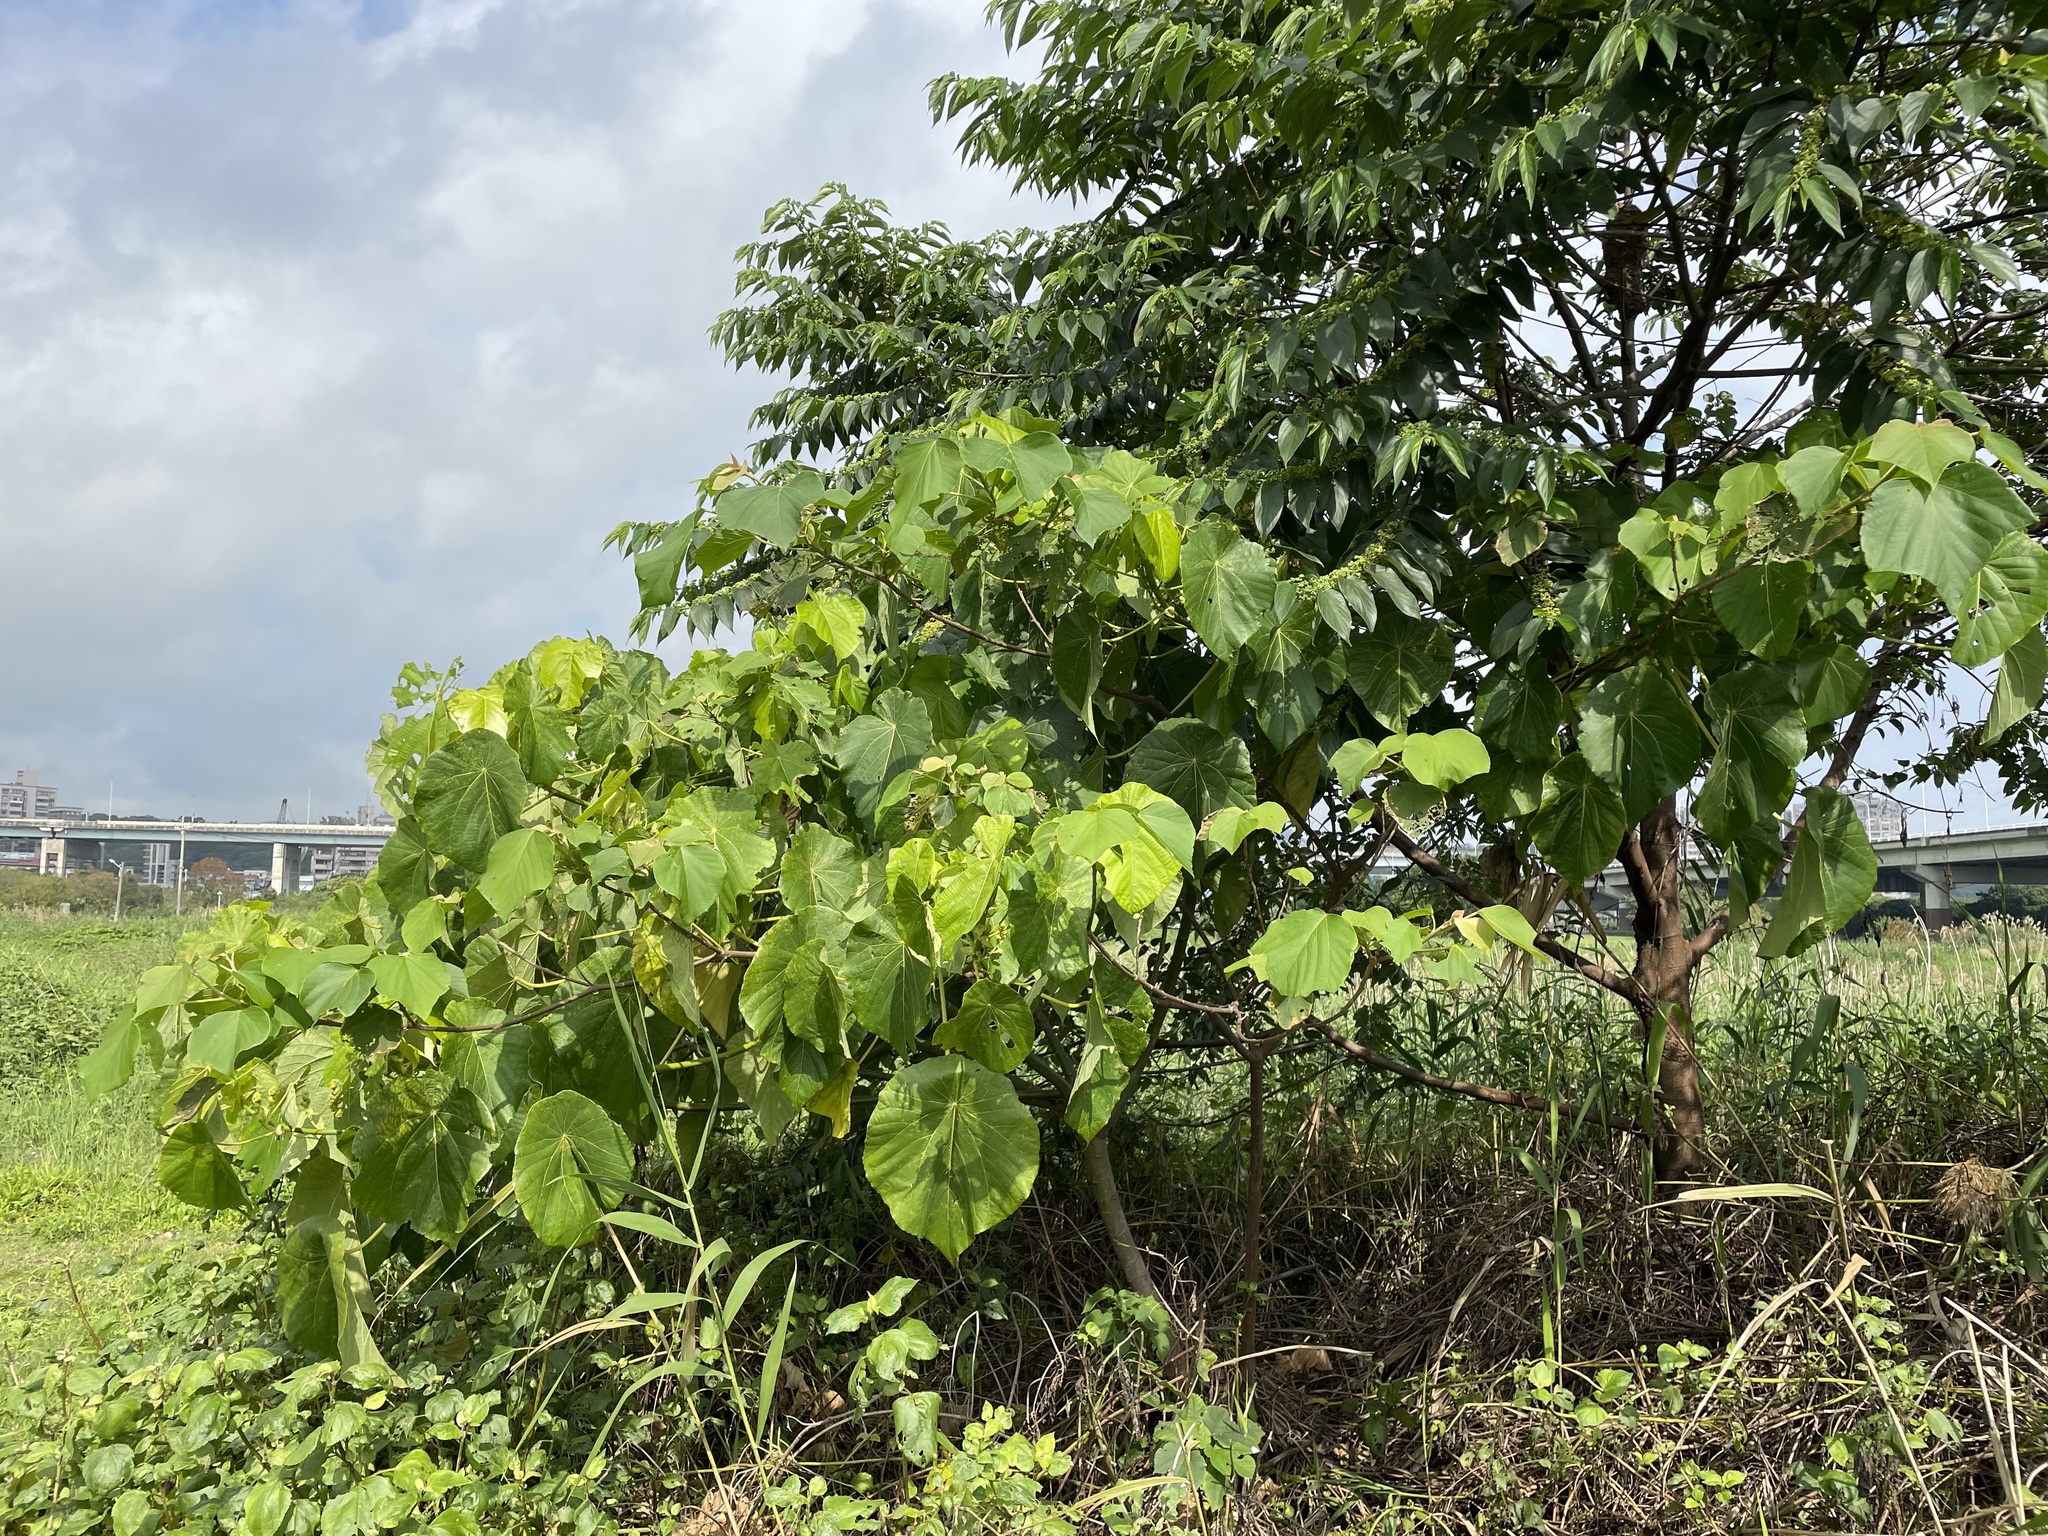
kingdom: Plantae
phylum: Tracheophyta
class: Magnoliopsida
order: Malpighiales
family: Euphorbiaceae
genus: Macaranga
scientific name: Macaranga tanarius
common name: Parasol leaf tree
